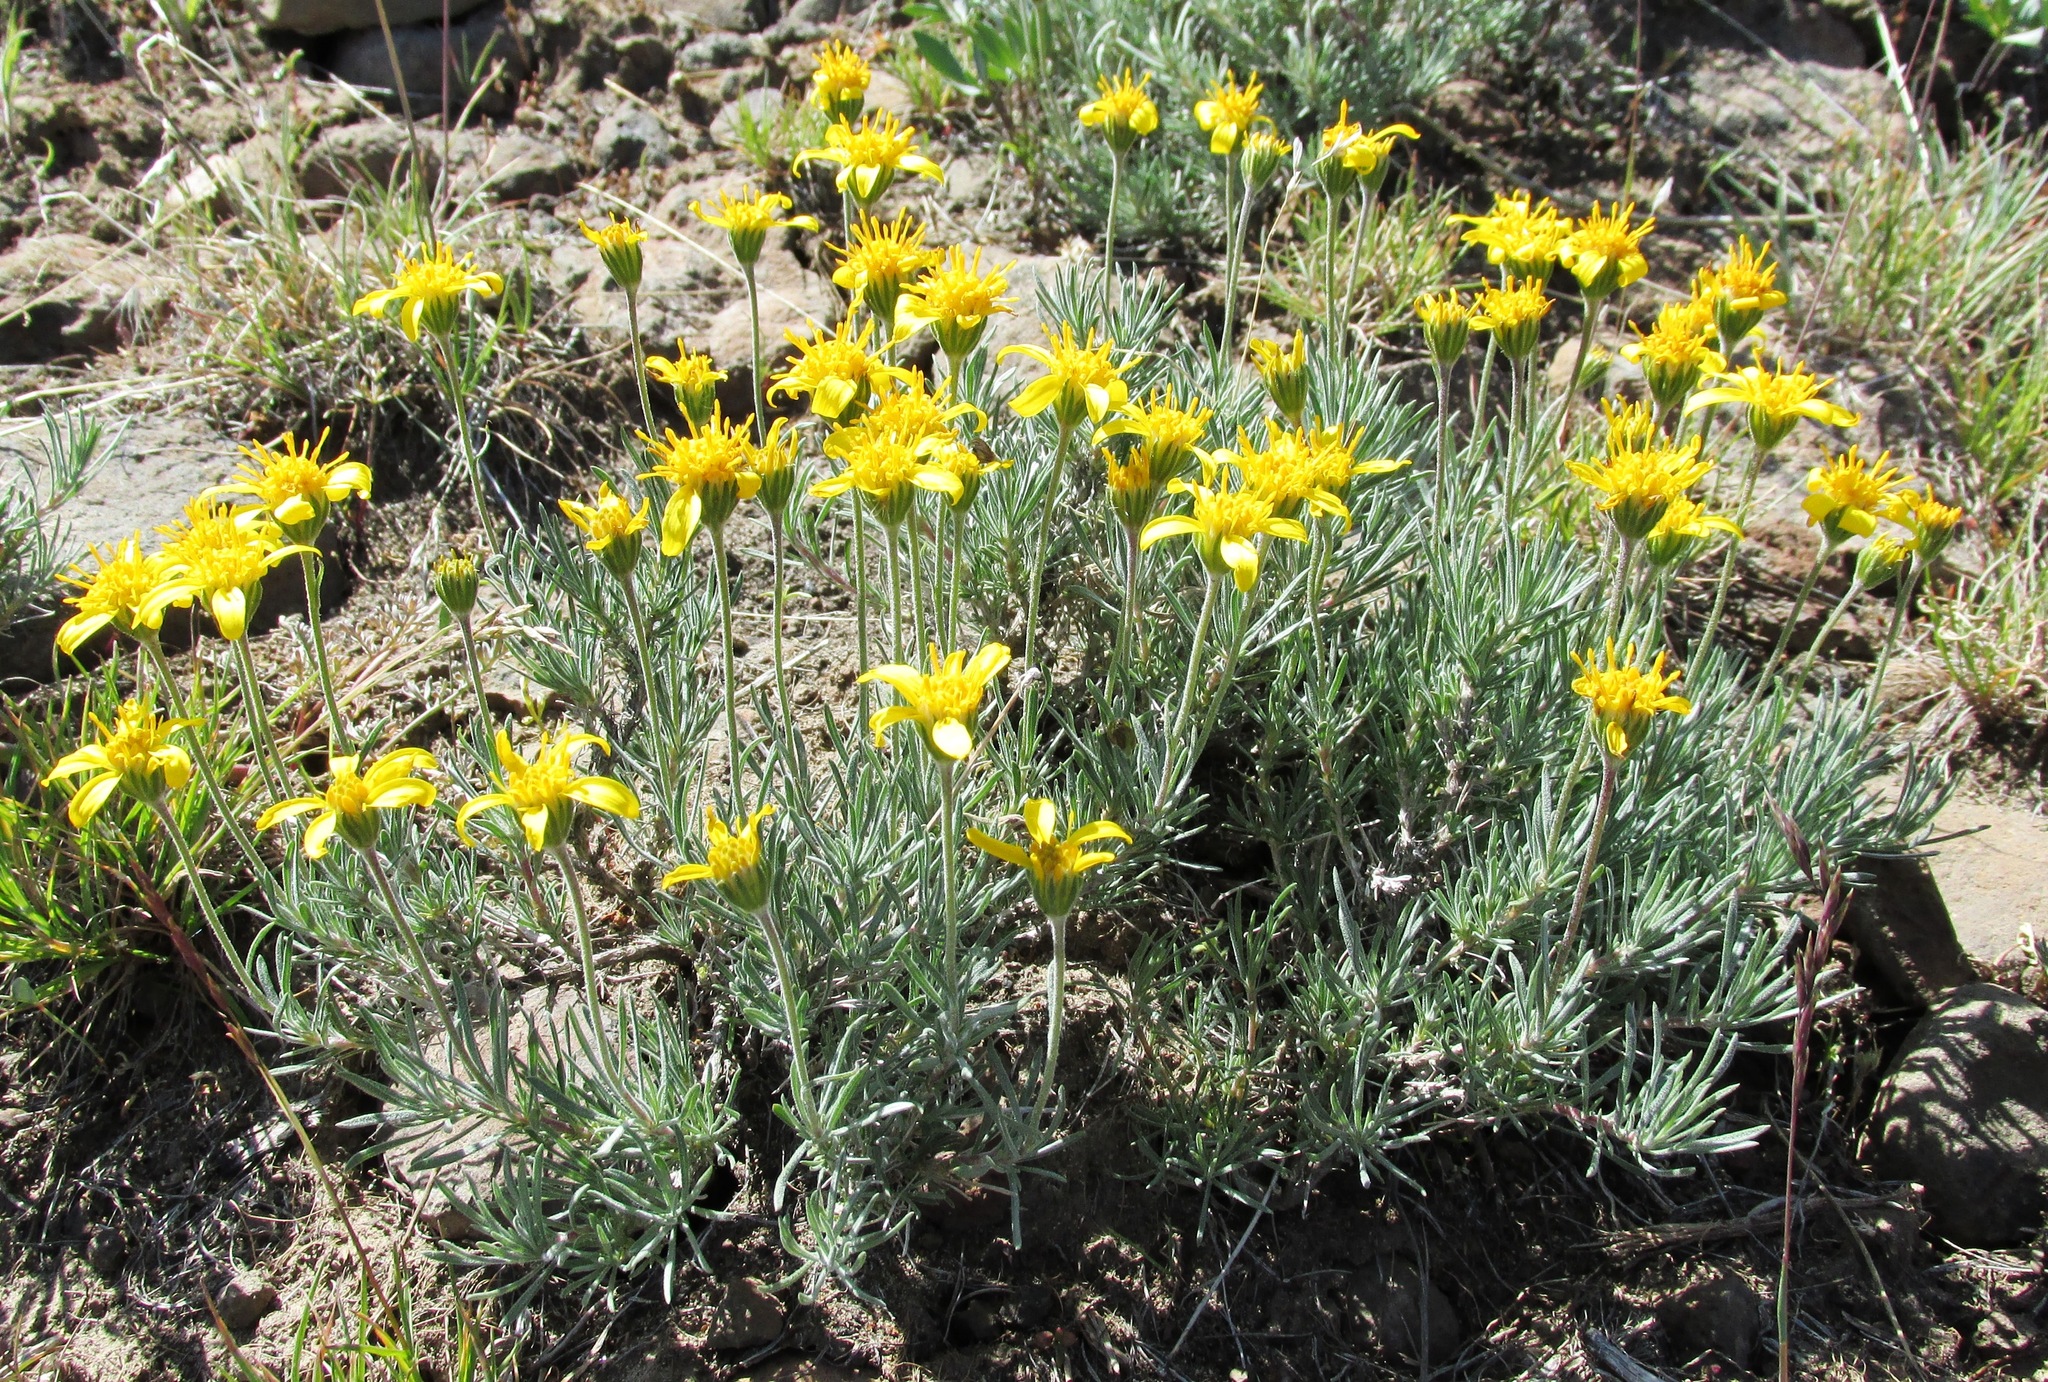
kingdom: Plantae
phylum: Tracheophyta
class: Magnoliopsida
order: Asterales
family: Asteraceae
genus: Nestotus
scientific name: Nestotus stenophyllus
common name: Narrow-leaf mock goldenweed
